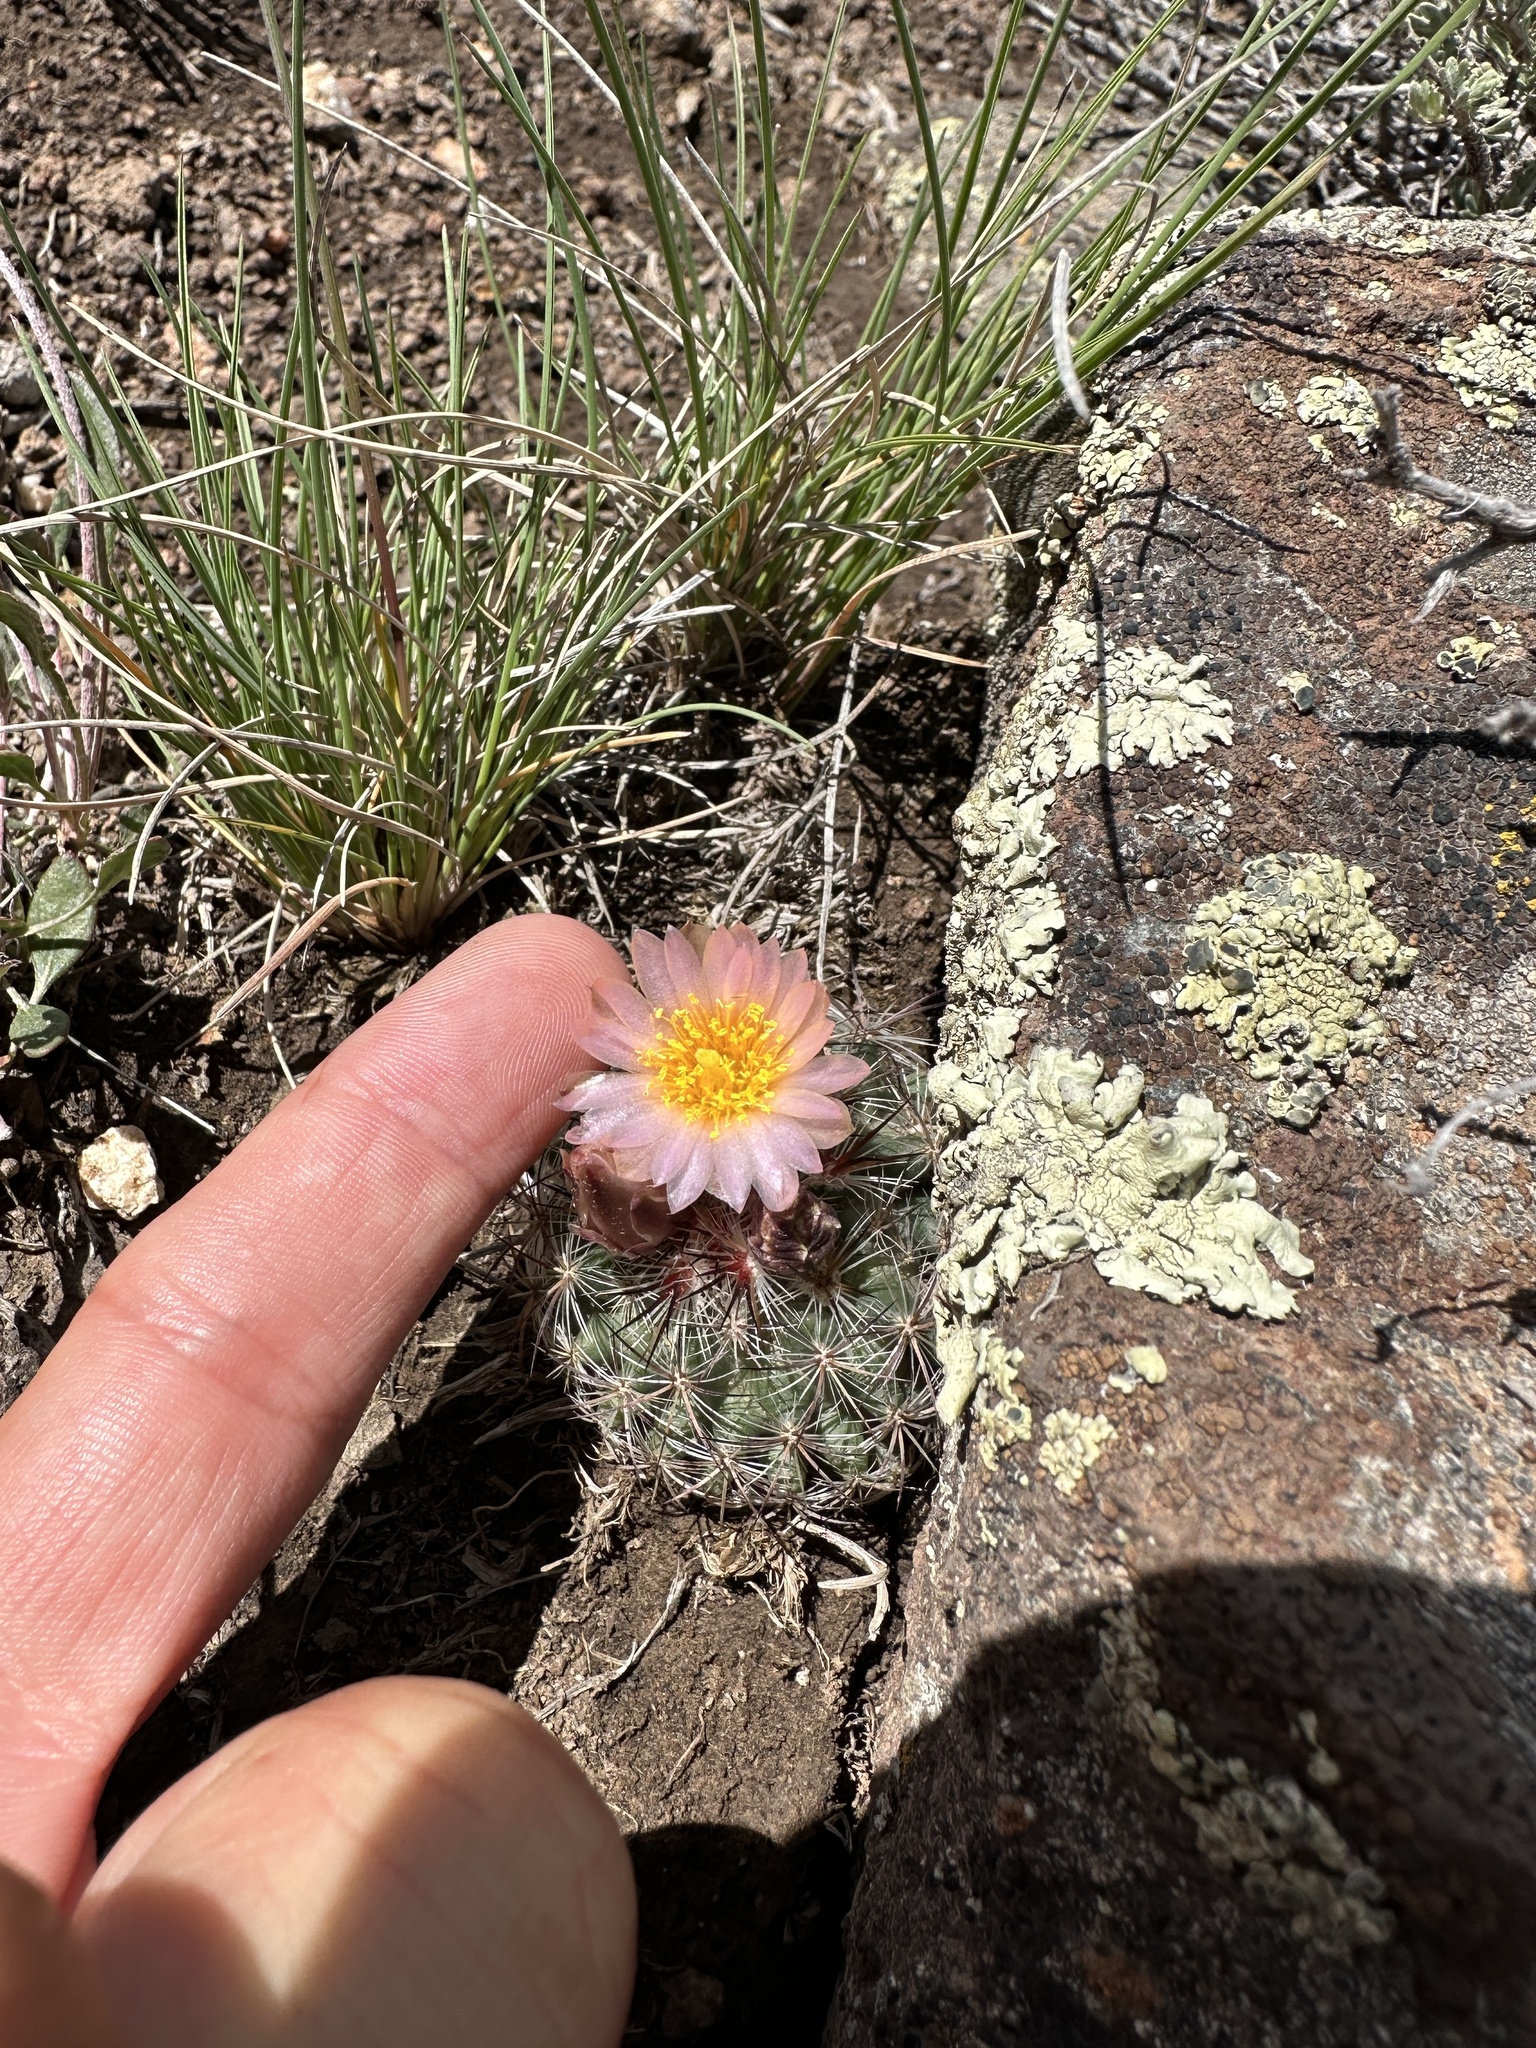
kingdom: Plantae
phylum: Tracheophyta
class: Magnoliopsida
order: Caryophyllales
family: Cactaceae
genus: Pediocactus
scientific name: Pediocactus simpsonii
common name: Simpson's hedgehog cactus
